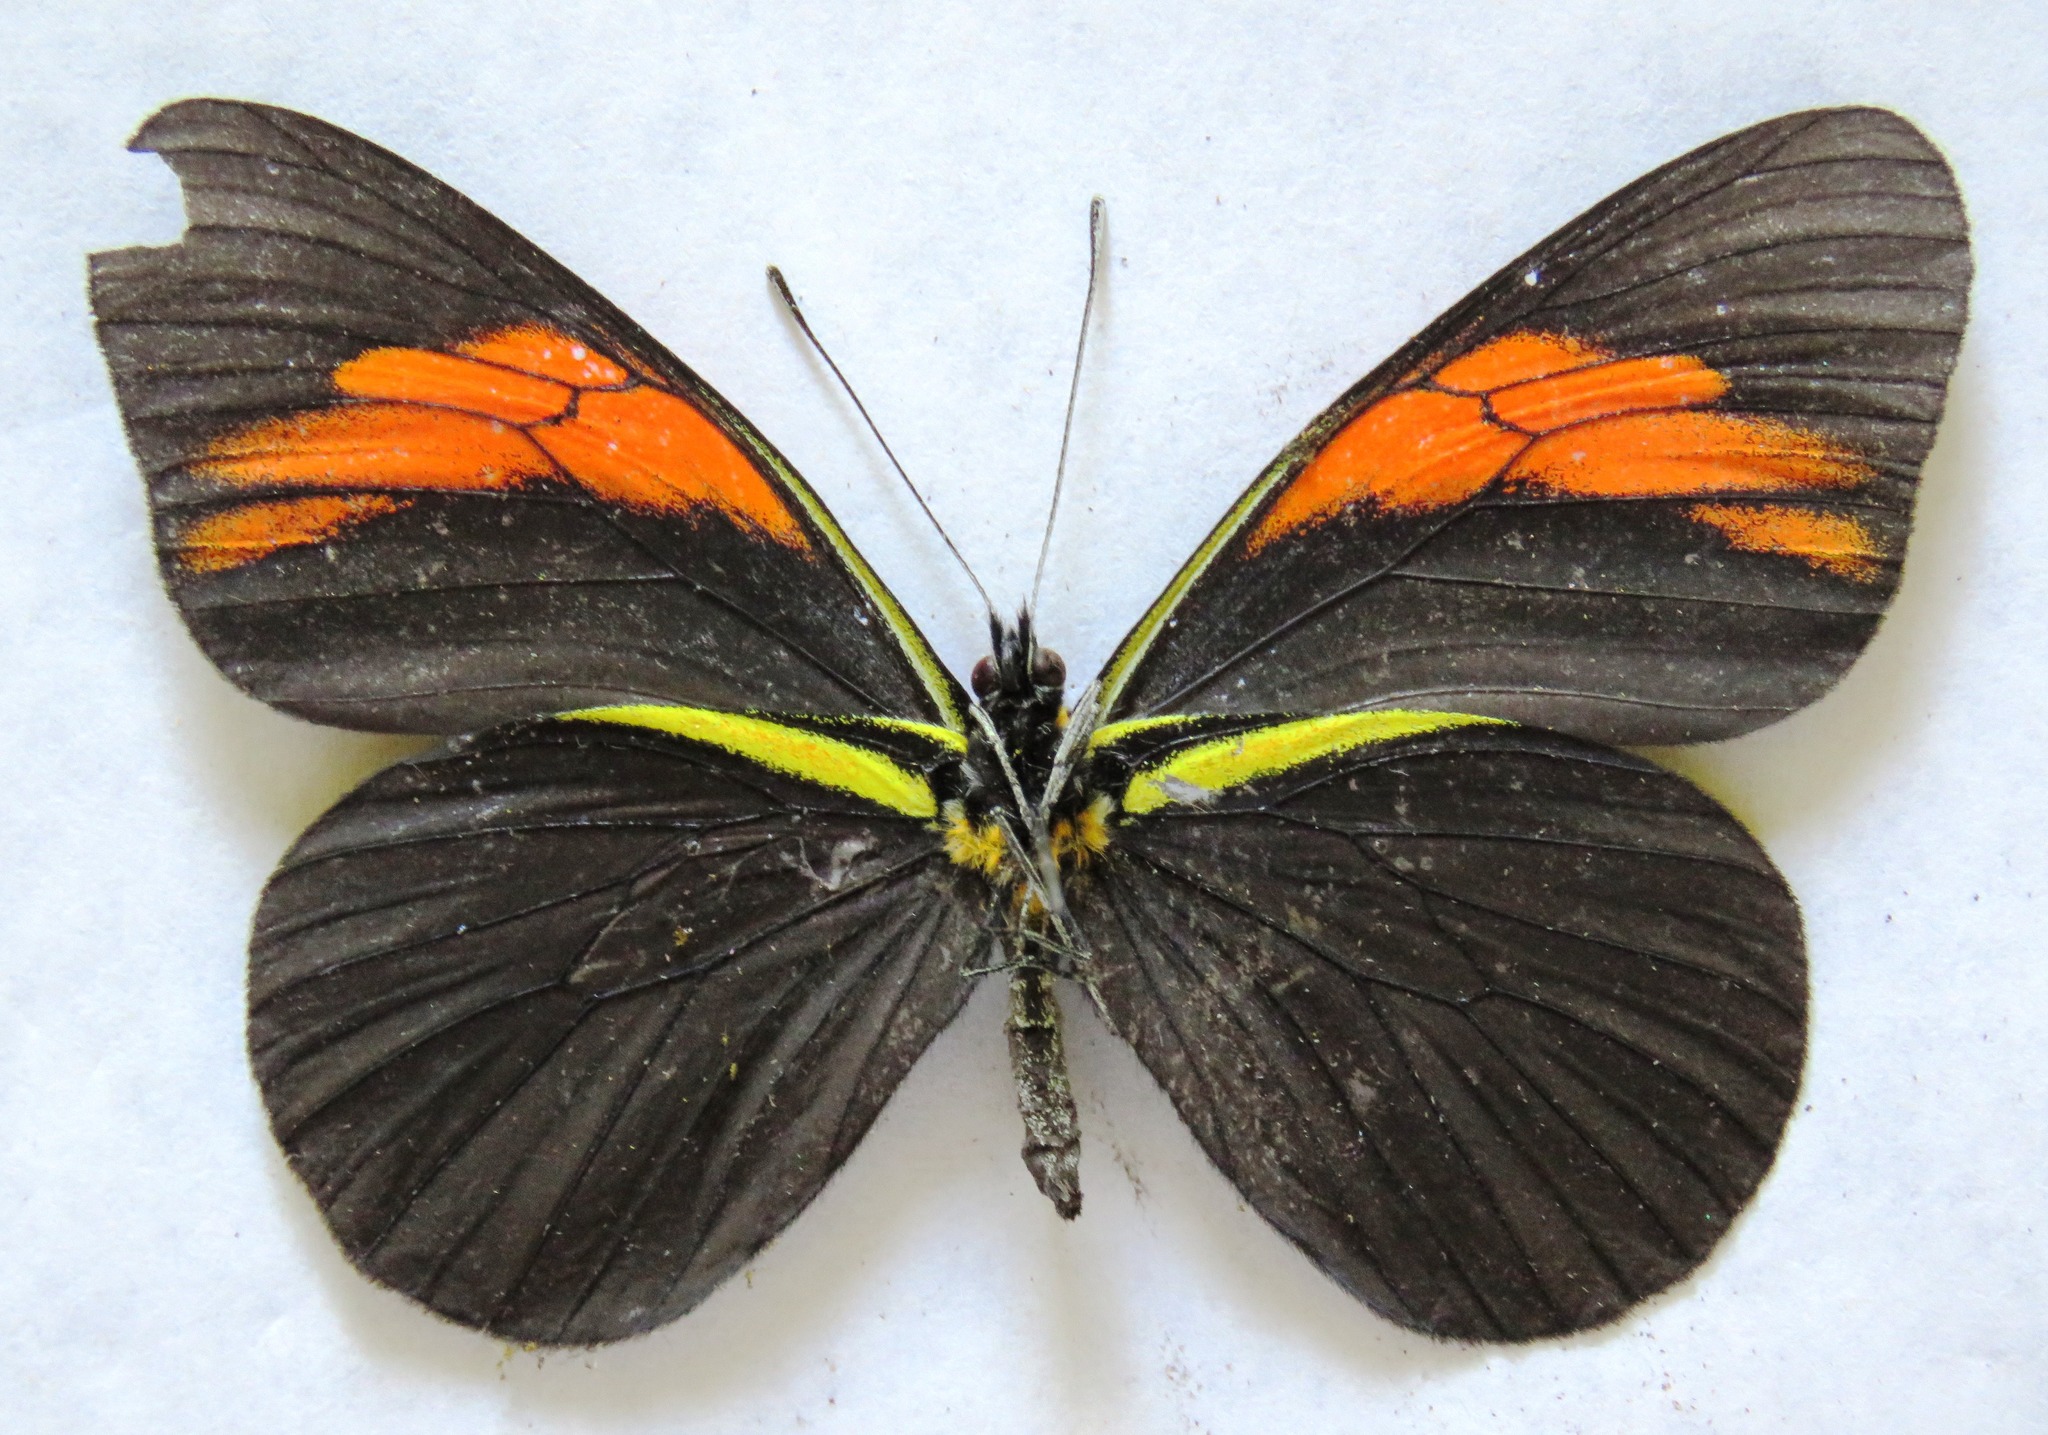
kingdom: Animalia
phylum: Arthropoda
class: Insecta
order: Lepidoptera
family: Pieridae
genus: Pereute
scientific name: Pereute charops
